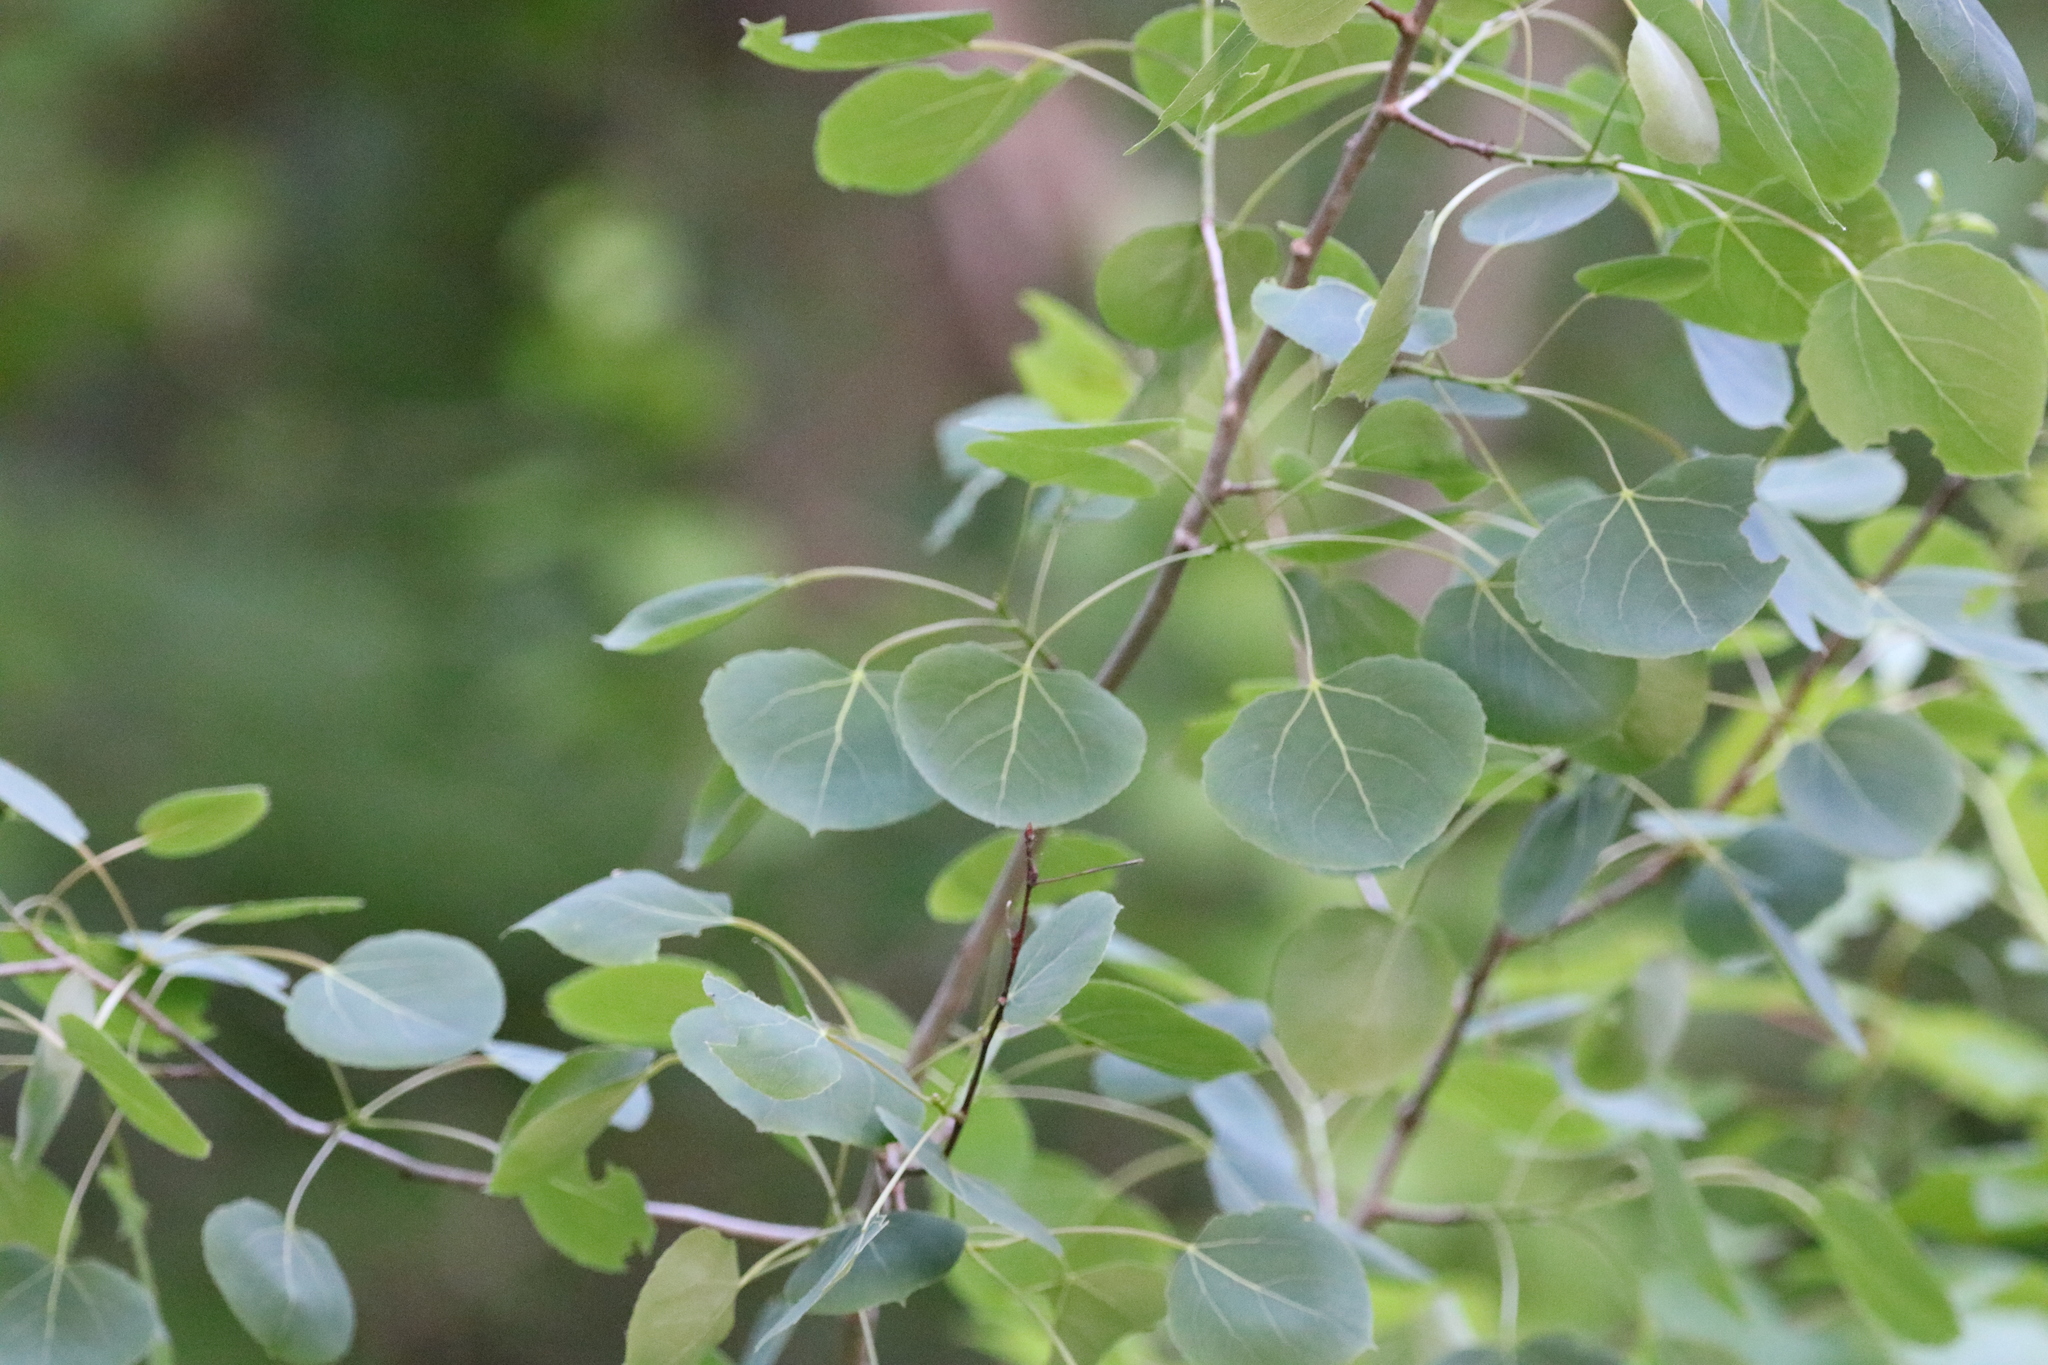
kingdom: Plantae
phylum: Tracheophyta
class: Magnoliopsida
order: Malpighiales
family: Salicaceae
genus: Populus
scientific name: Populus tremuloides
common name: Quaking aspen
